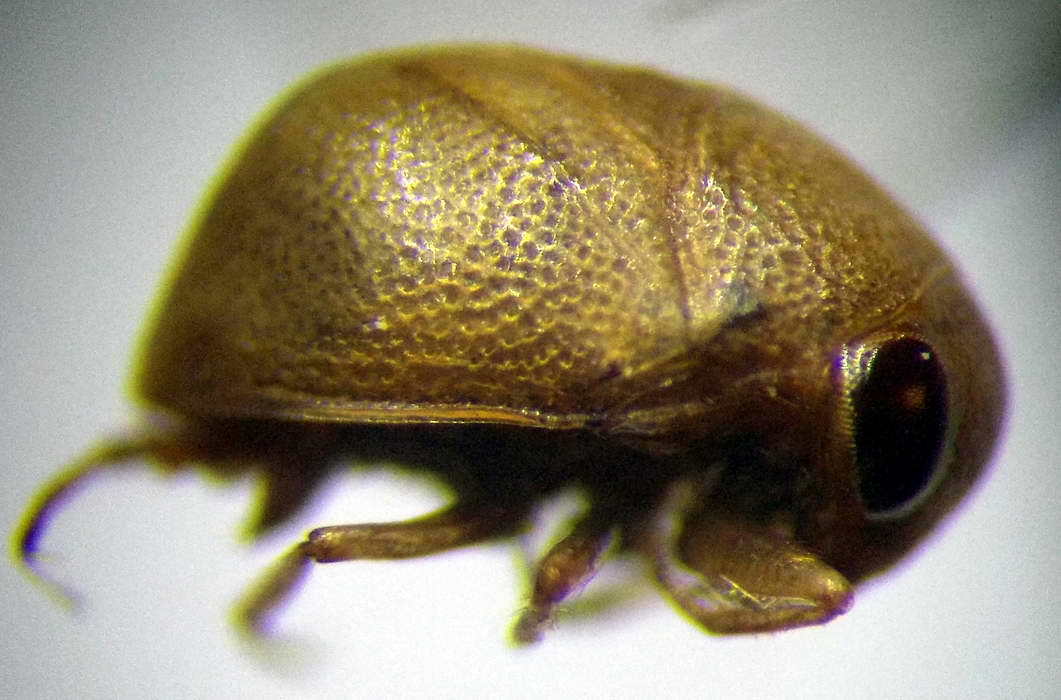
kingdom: Animalia
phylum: Arthropoda
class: Insecta
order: Hemiptera
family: Pleidae
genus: Plea
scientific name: Plea minutissima
